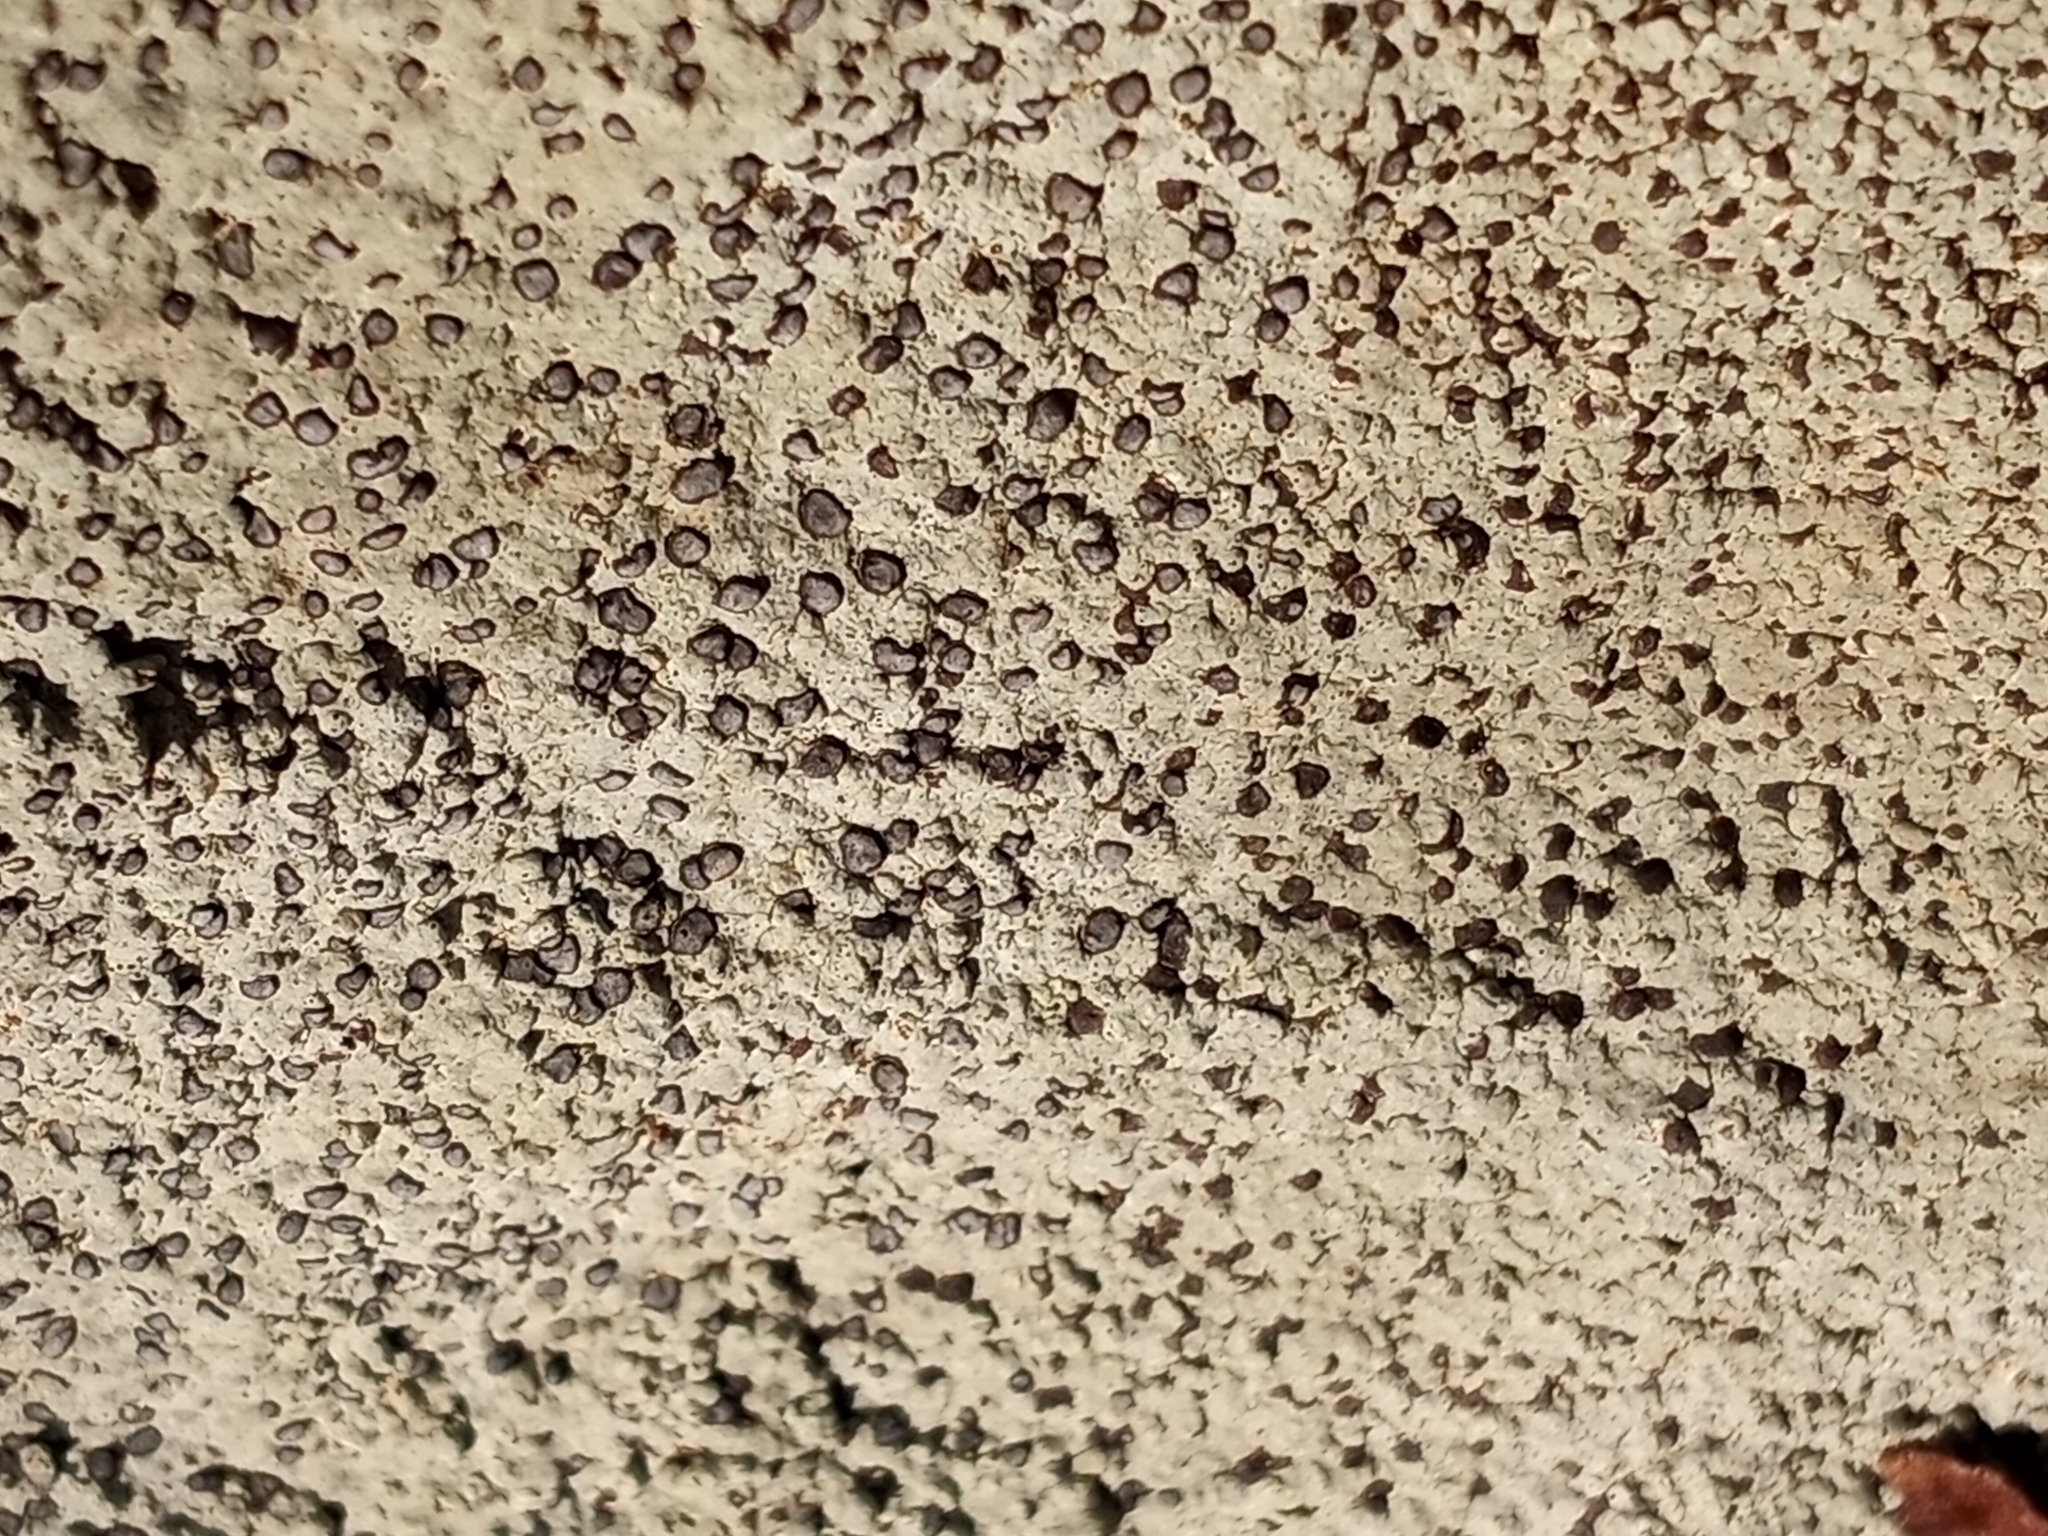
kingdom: Fungi
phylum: Ascomycota
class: Lecanoromycetes
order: Lecideales
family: Lecideaceae
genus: Porpidia
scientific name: Porpidia albocaerulescens
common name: Smokey-eyed boulder lichen
